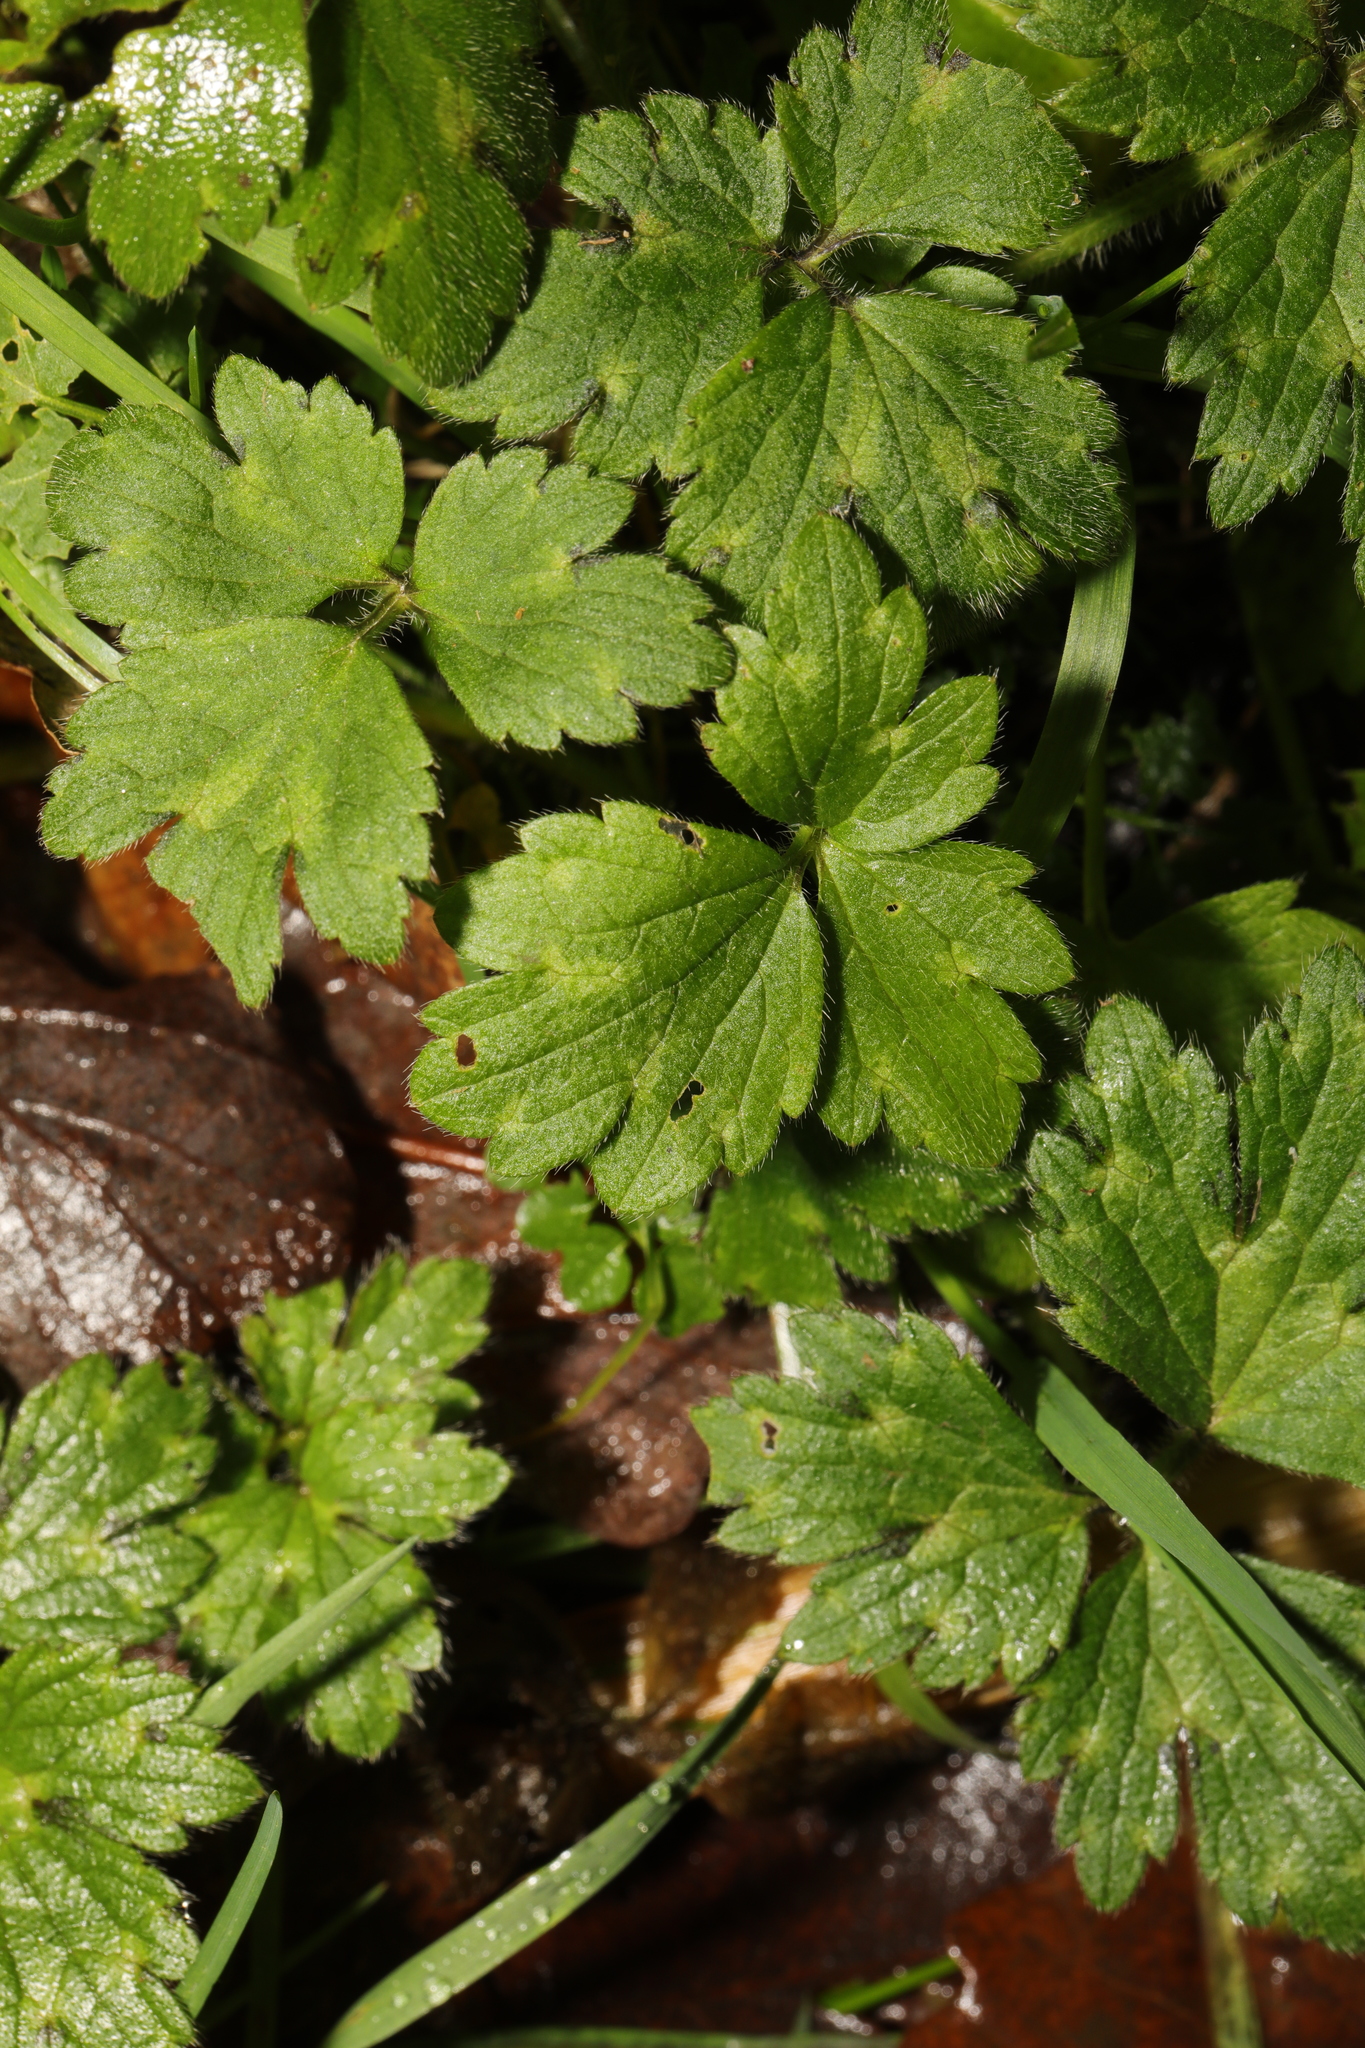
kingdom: Plantae
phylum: Tracheophyta
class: Magnoliopsida
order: Ranunculales
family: Ranunculaceae
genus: Ranunculus
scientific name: Ranunculus repens
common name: Creeping buttercup
